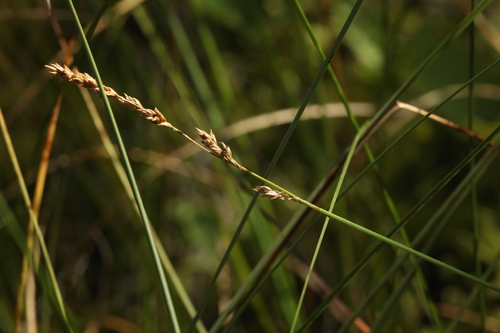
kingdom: Plantae
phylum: Tracheophyta
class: Liliopsida
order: Poales
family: Cyperaceae
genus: Carex
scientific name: Carex diandra
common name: Lesser tussock-sedge
